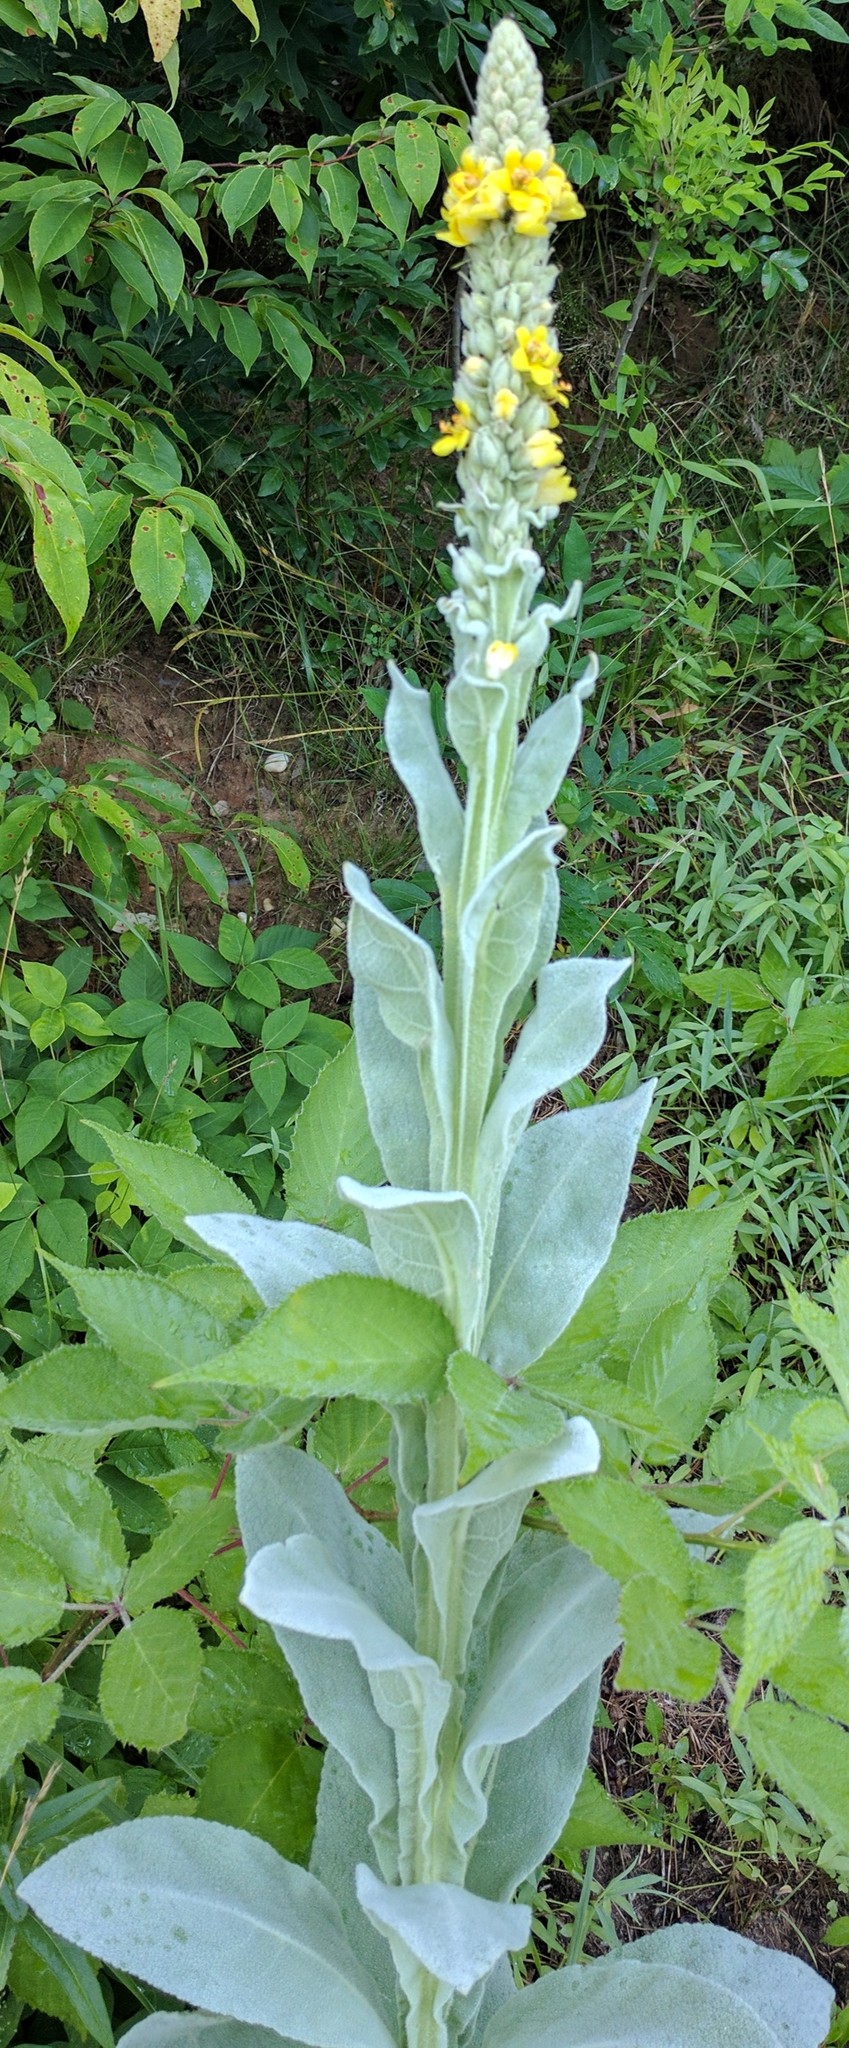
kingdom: Plantae
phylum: Tracheophyta
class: Magnoliopsida
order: Lamiales
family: Scrophulariaceae
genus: Verbascum
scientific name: Verbascum thapsus
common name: Common mullein
